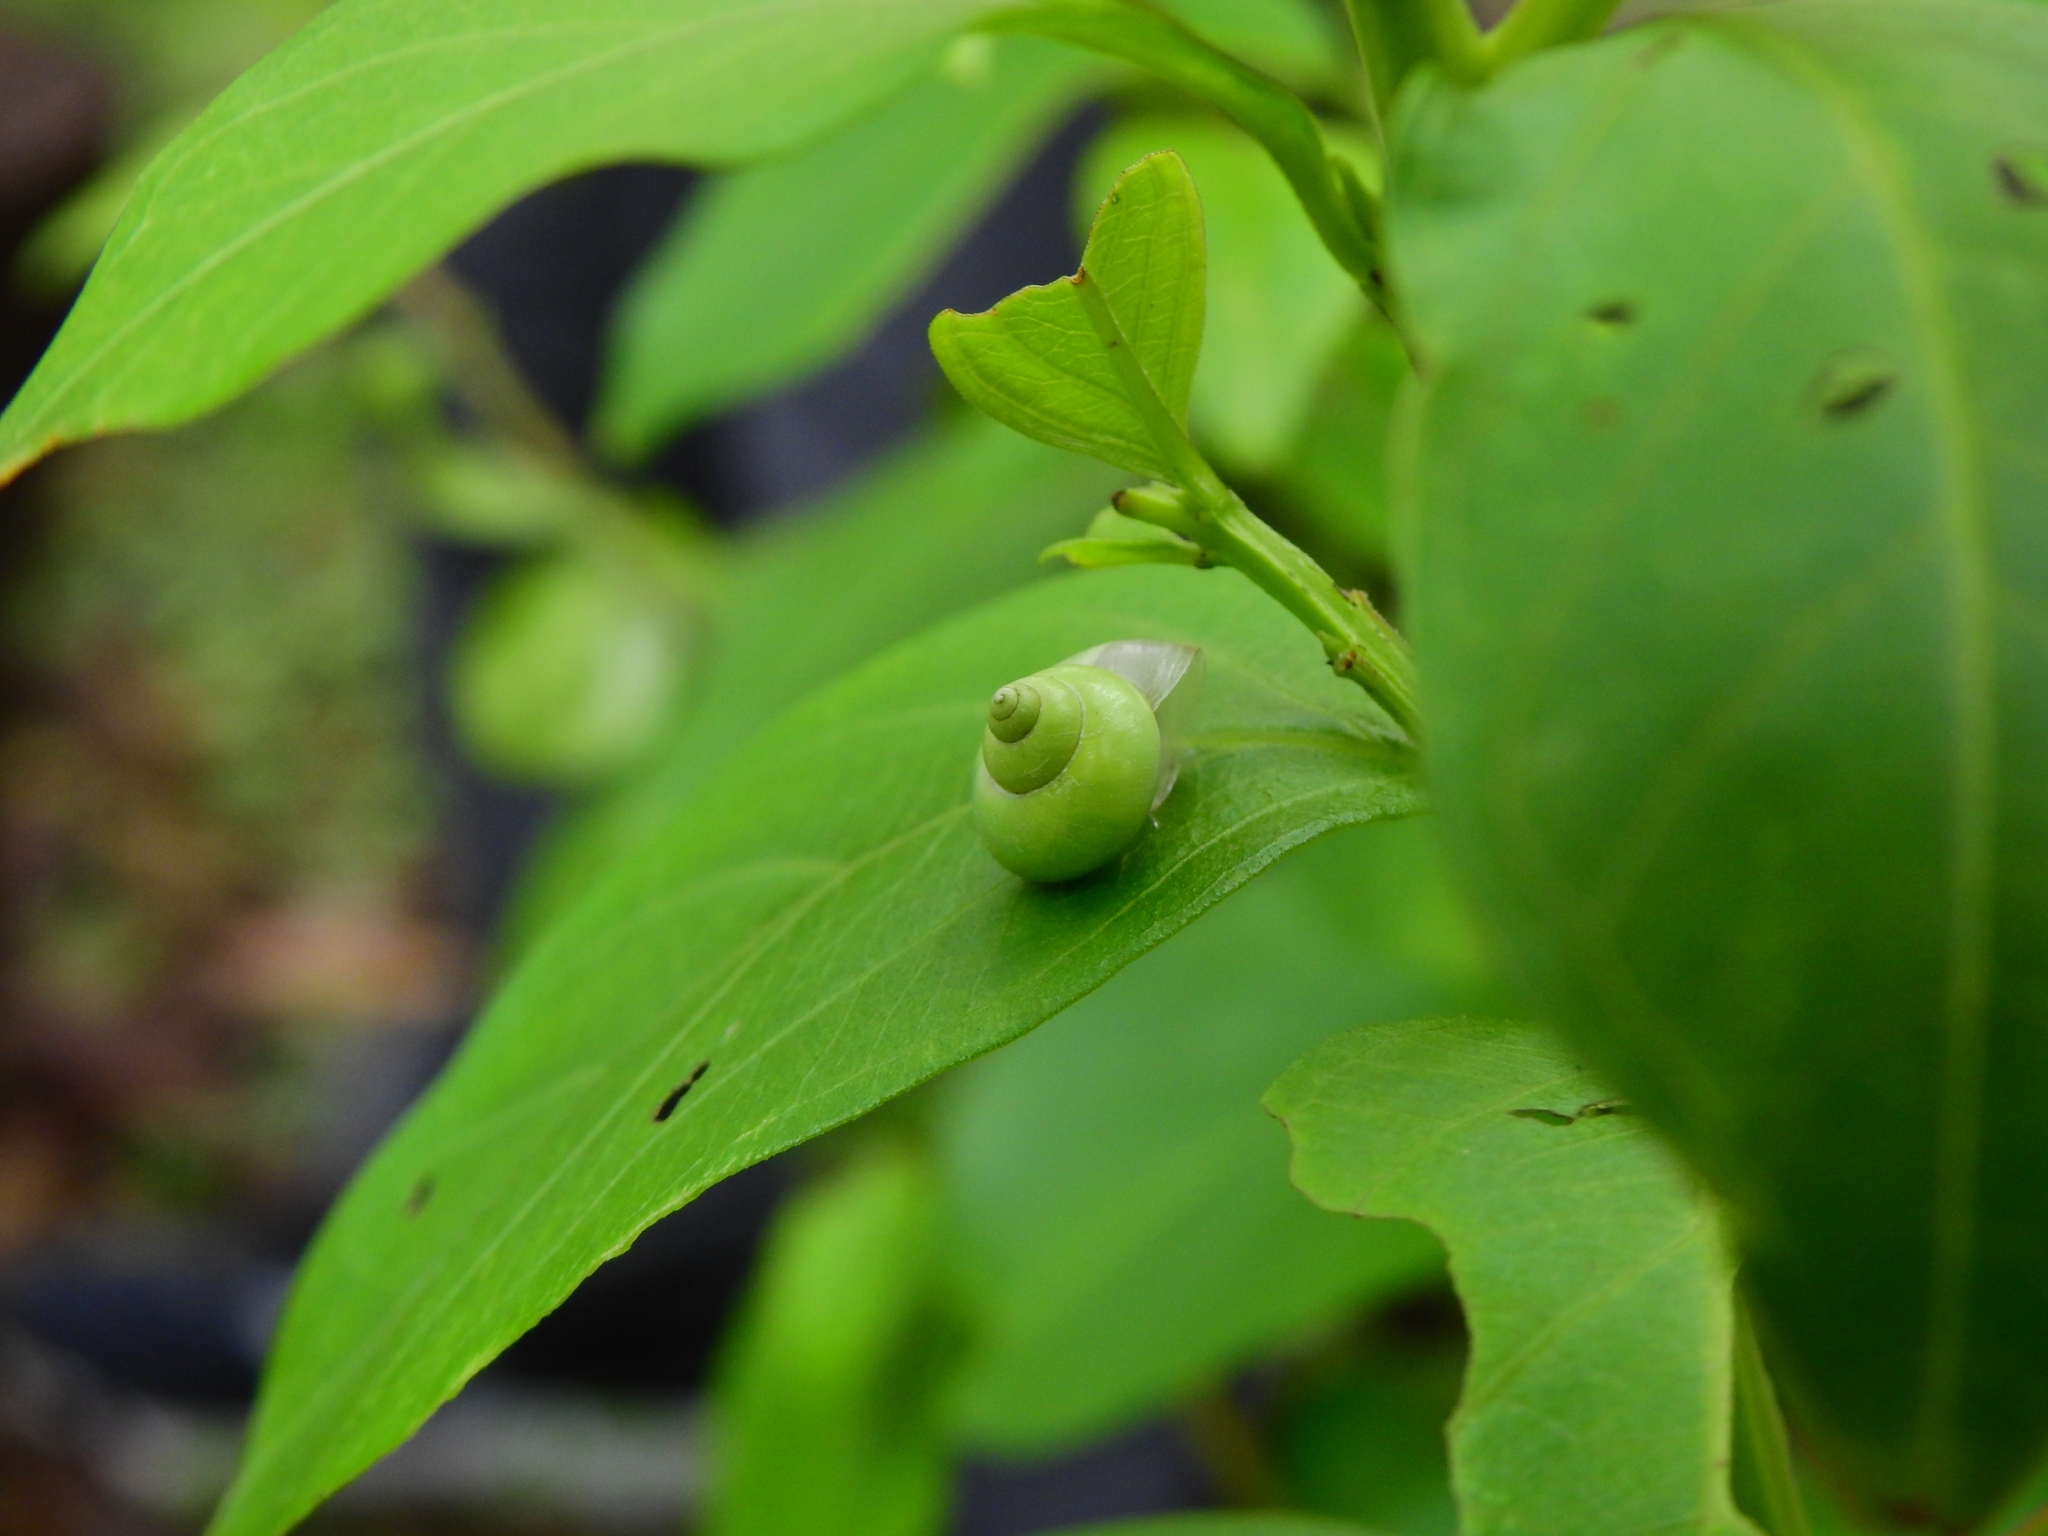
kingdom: Animalia
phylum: Mollusca
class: Gastropoda
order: Architaenioglossa
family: Cyclophoridae
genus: Leptopoma
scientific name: Leptopoma nitidum
